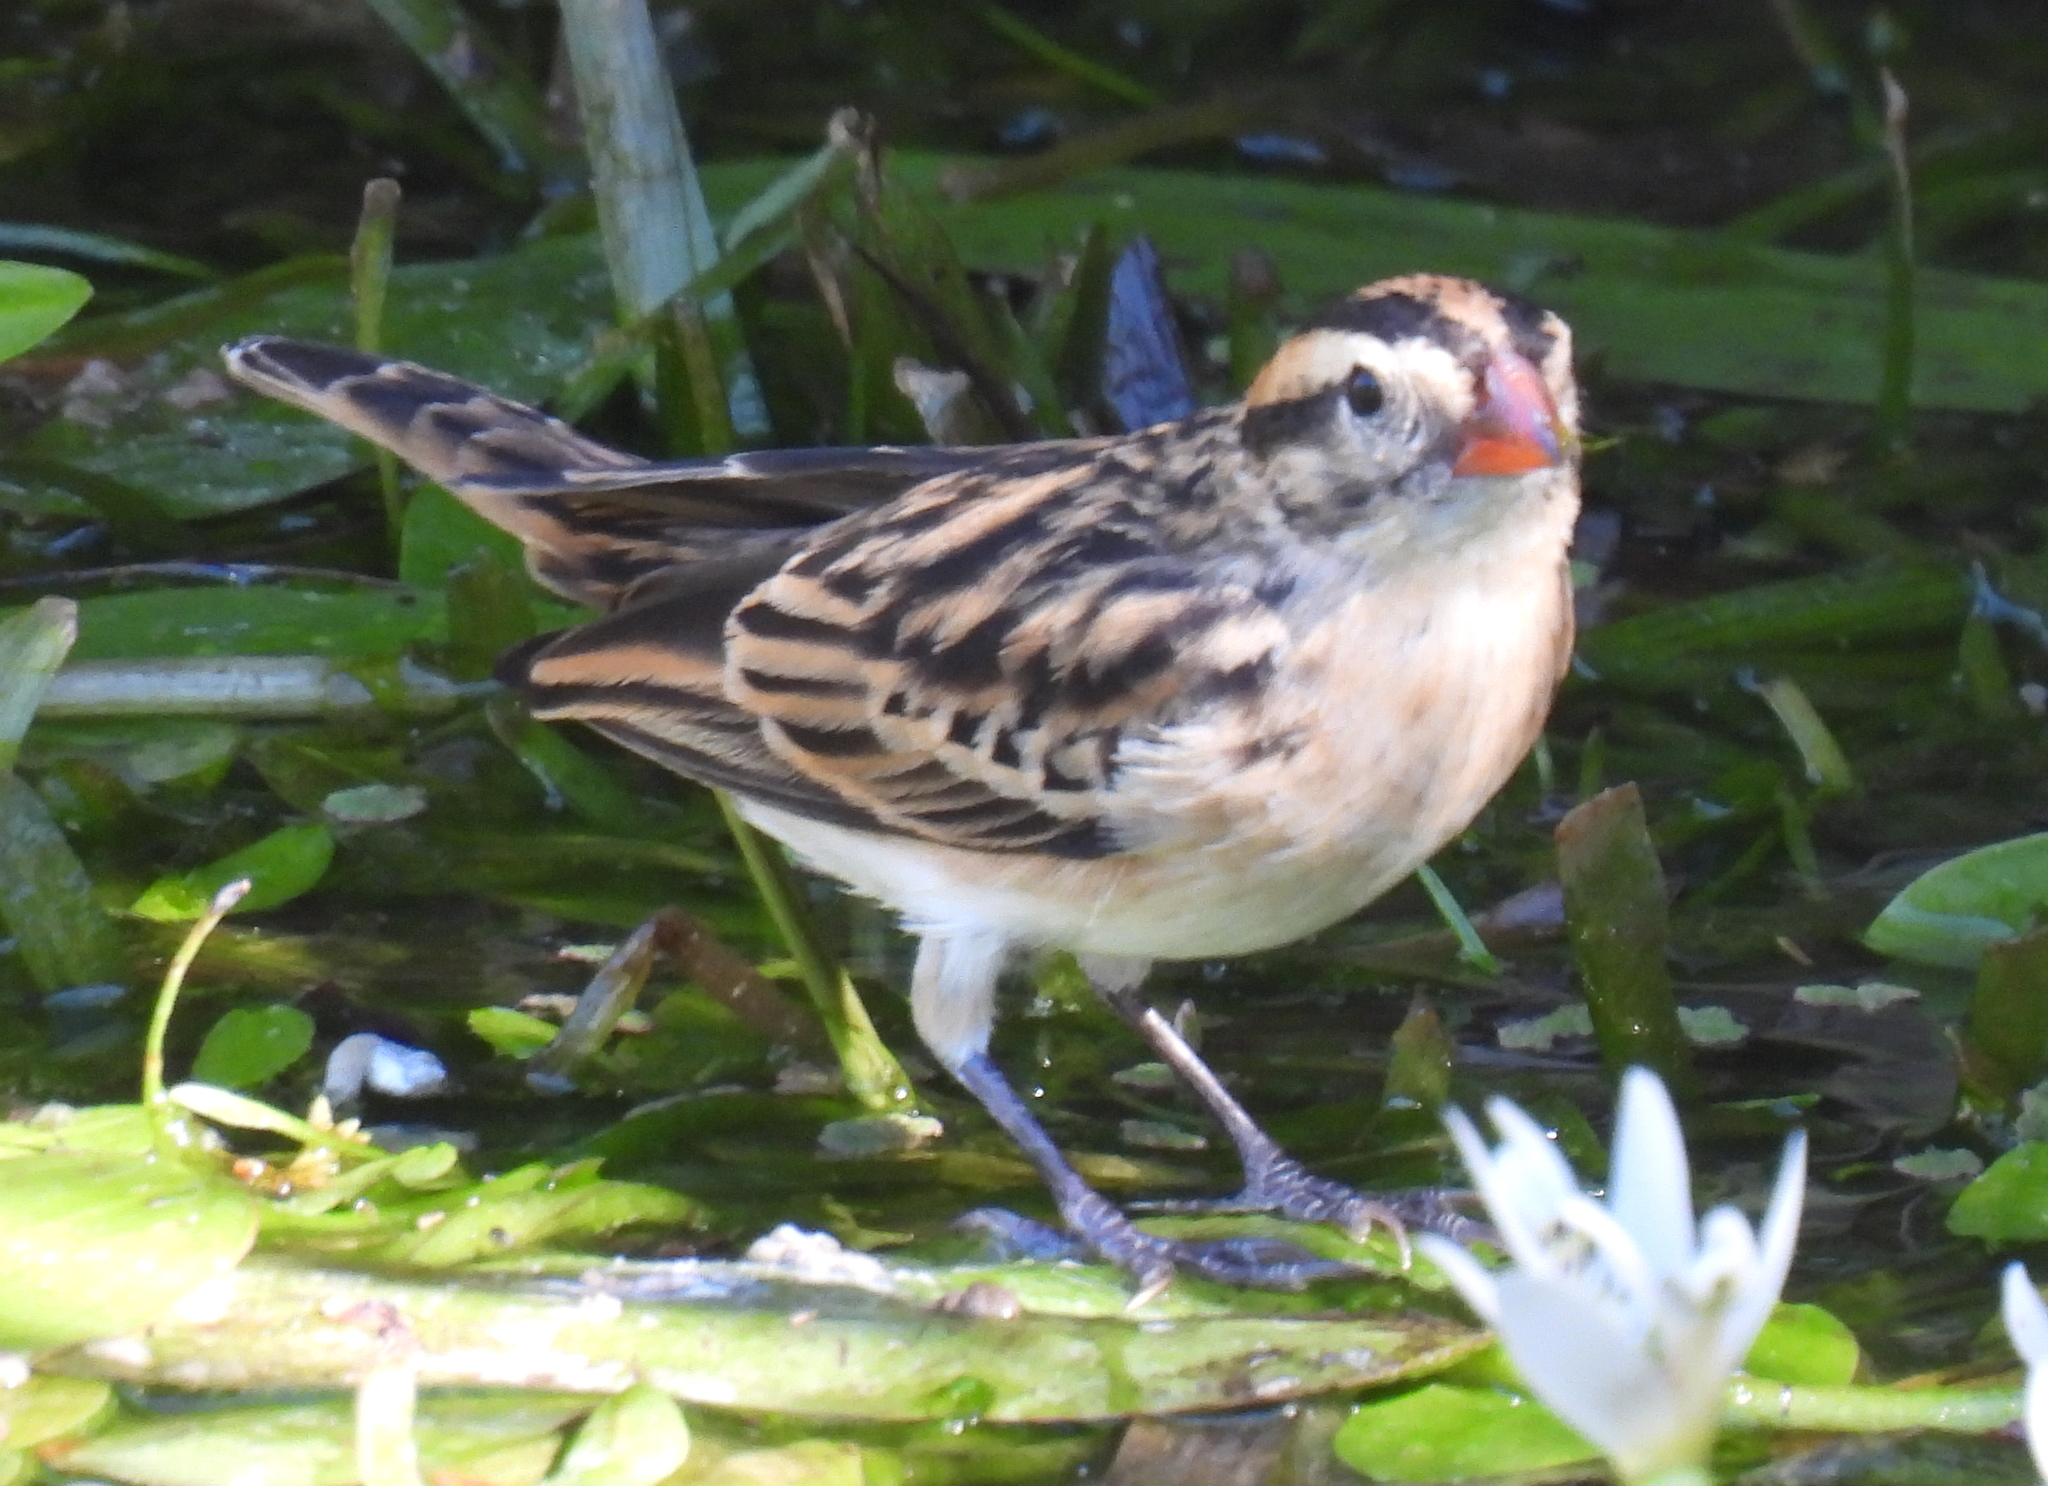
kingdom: Animalia
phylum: Chordata
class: Aves
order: Passeriformes
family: Viduidae
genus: Vidua
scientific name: Vidua macroura
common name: Pin-tailed whydah
